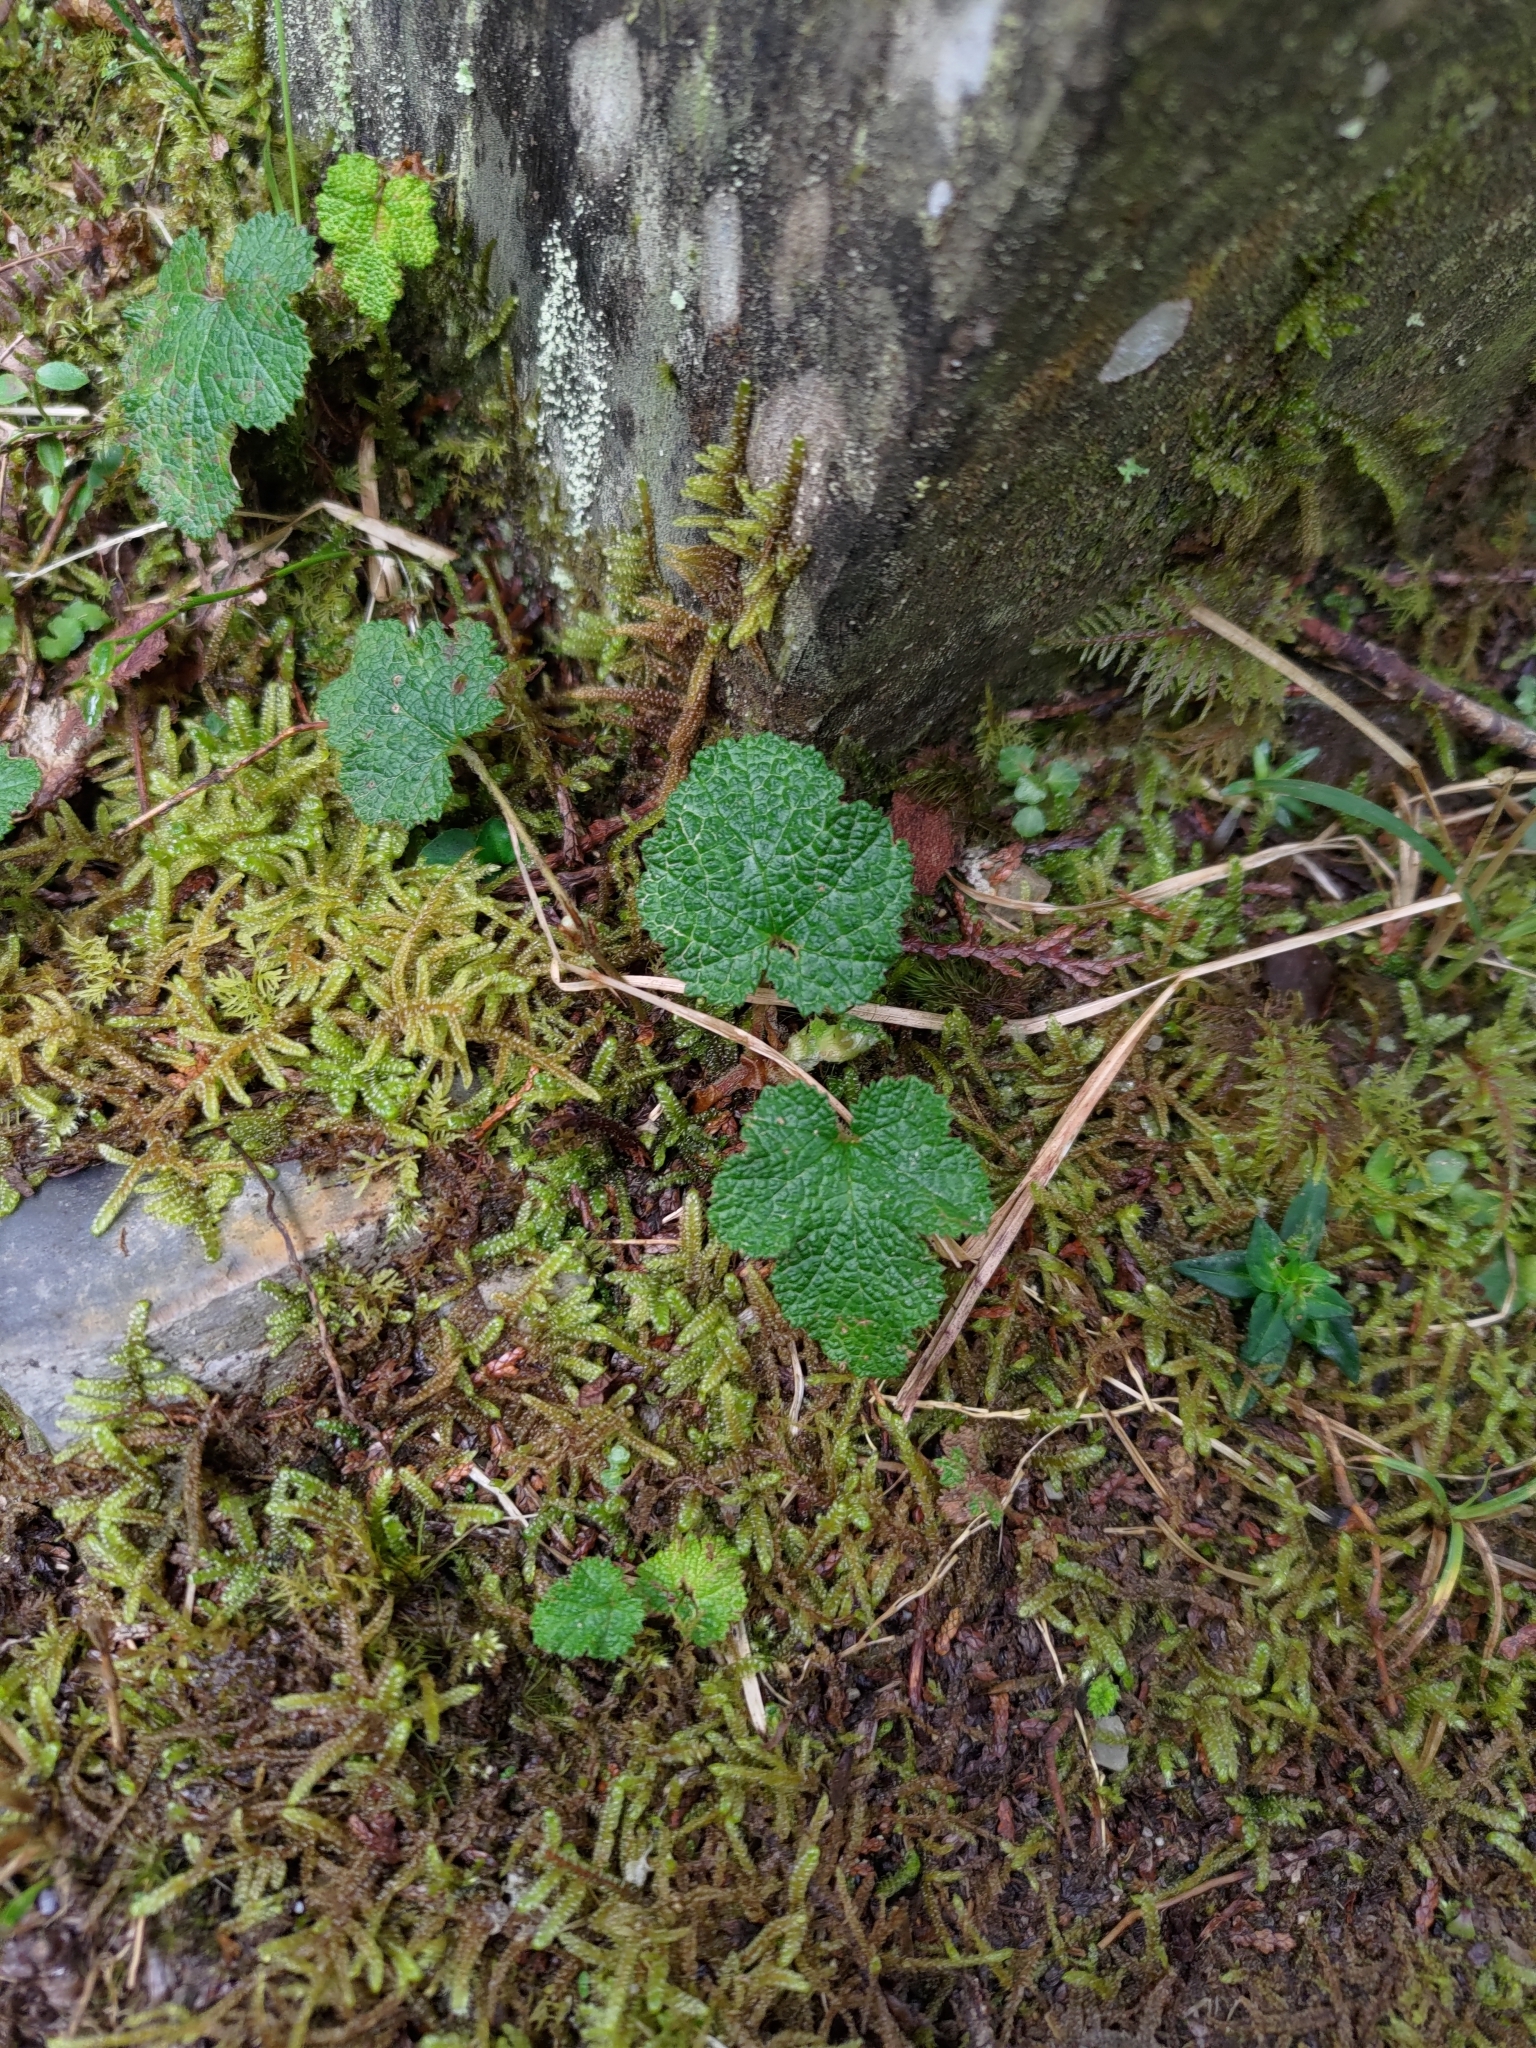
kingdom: Plantae
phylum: Tracheophyta
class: Magnoliopsida
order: Rosales
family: Rosaceae
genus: Rubus
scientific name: Rubus rolfei
